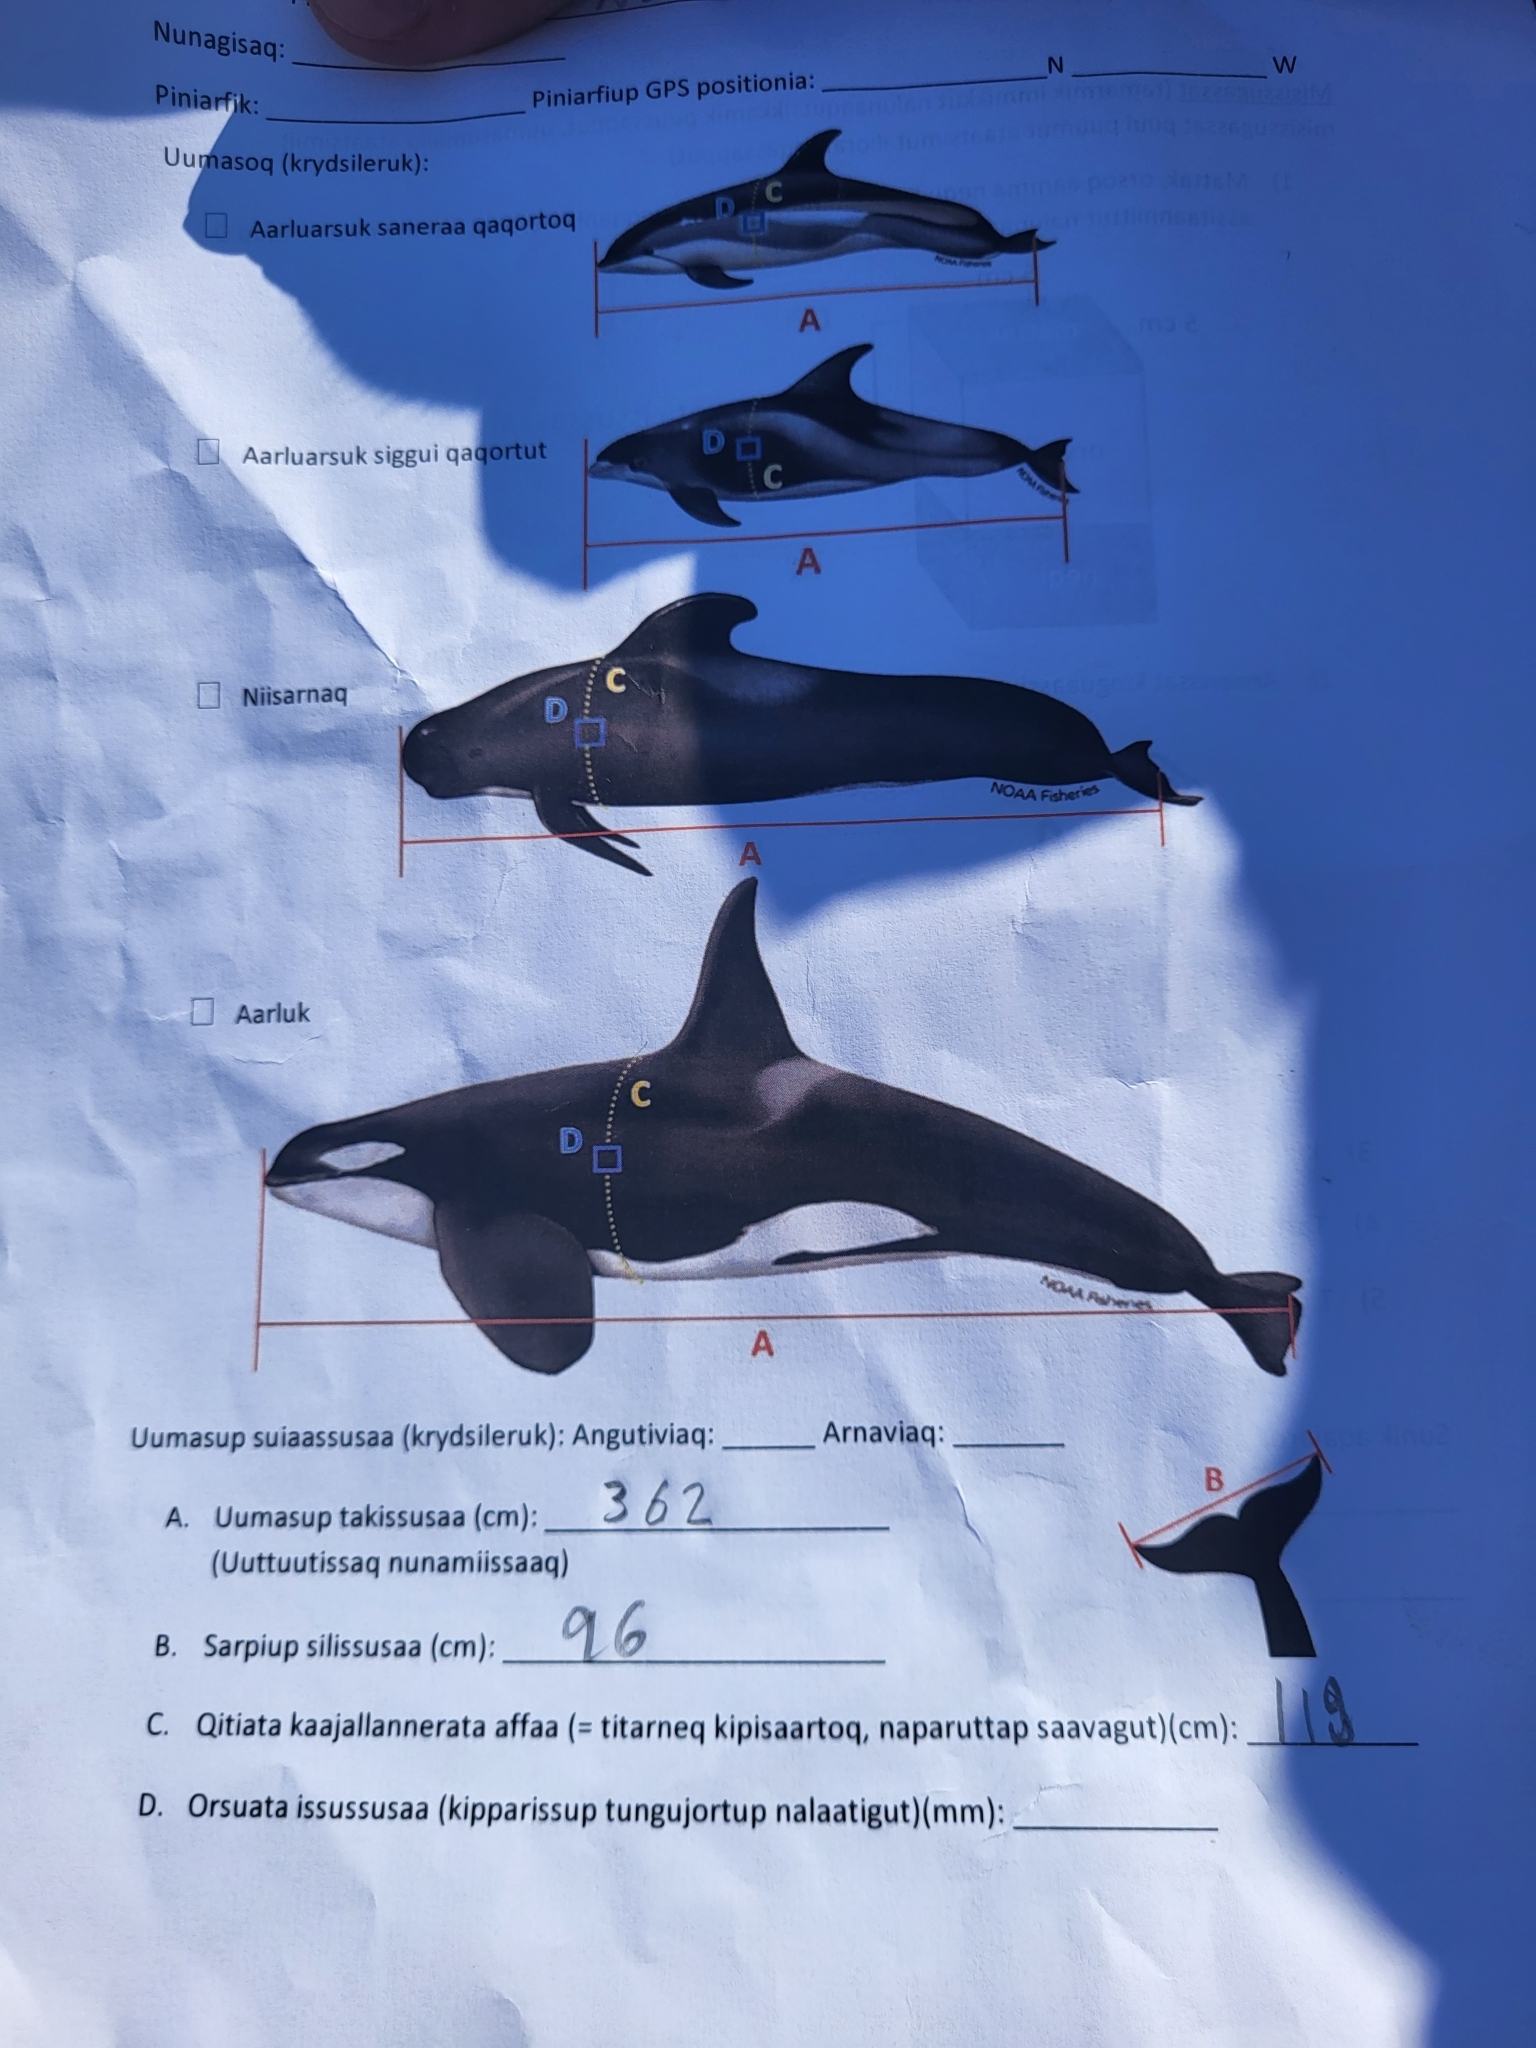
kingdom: Animalia
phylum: Chordata
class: Mammalia
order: Cetacea
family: Delphinidae
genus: Orcinus
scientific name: Orcinus orca
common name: Killer whale
